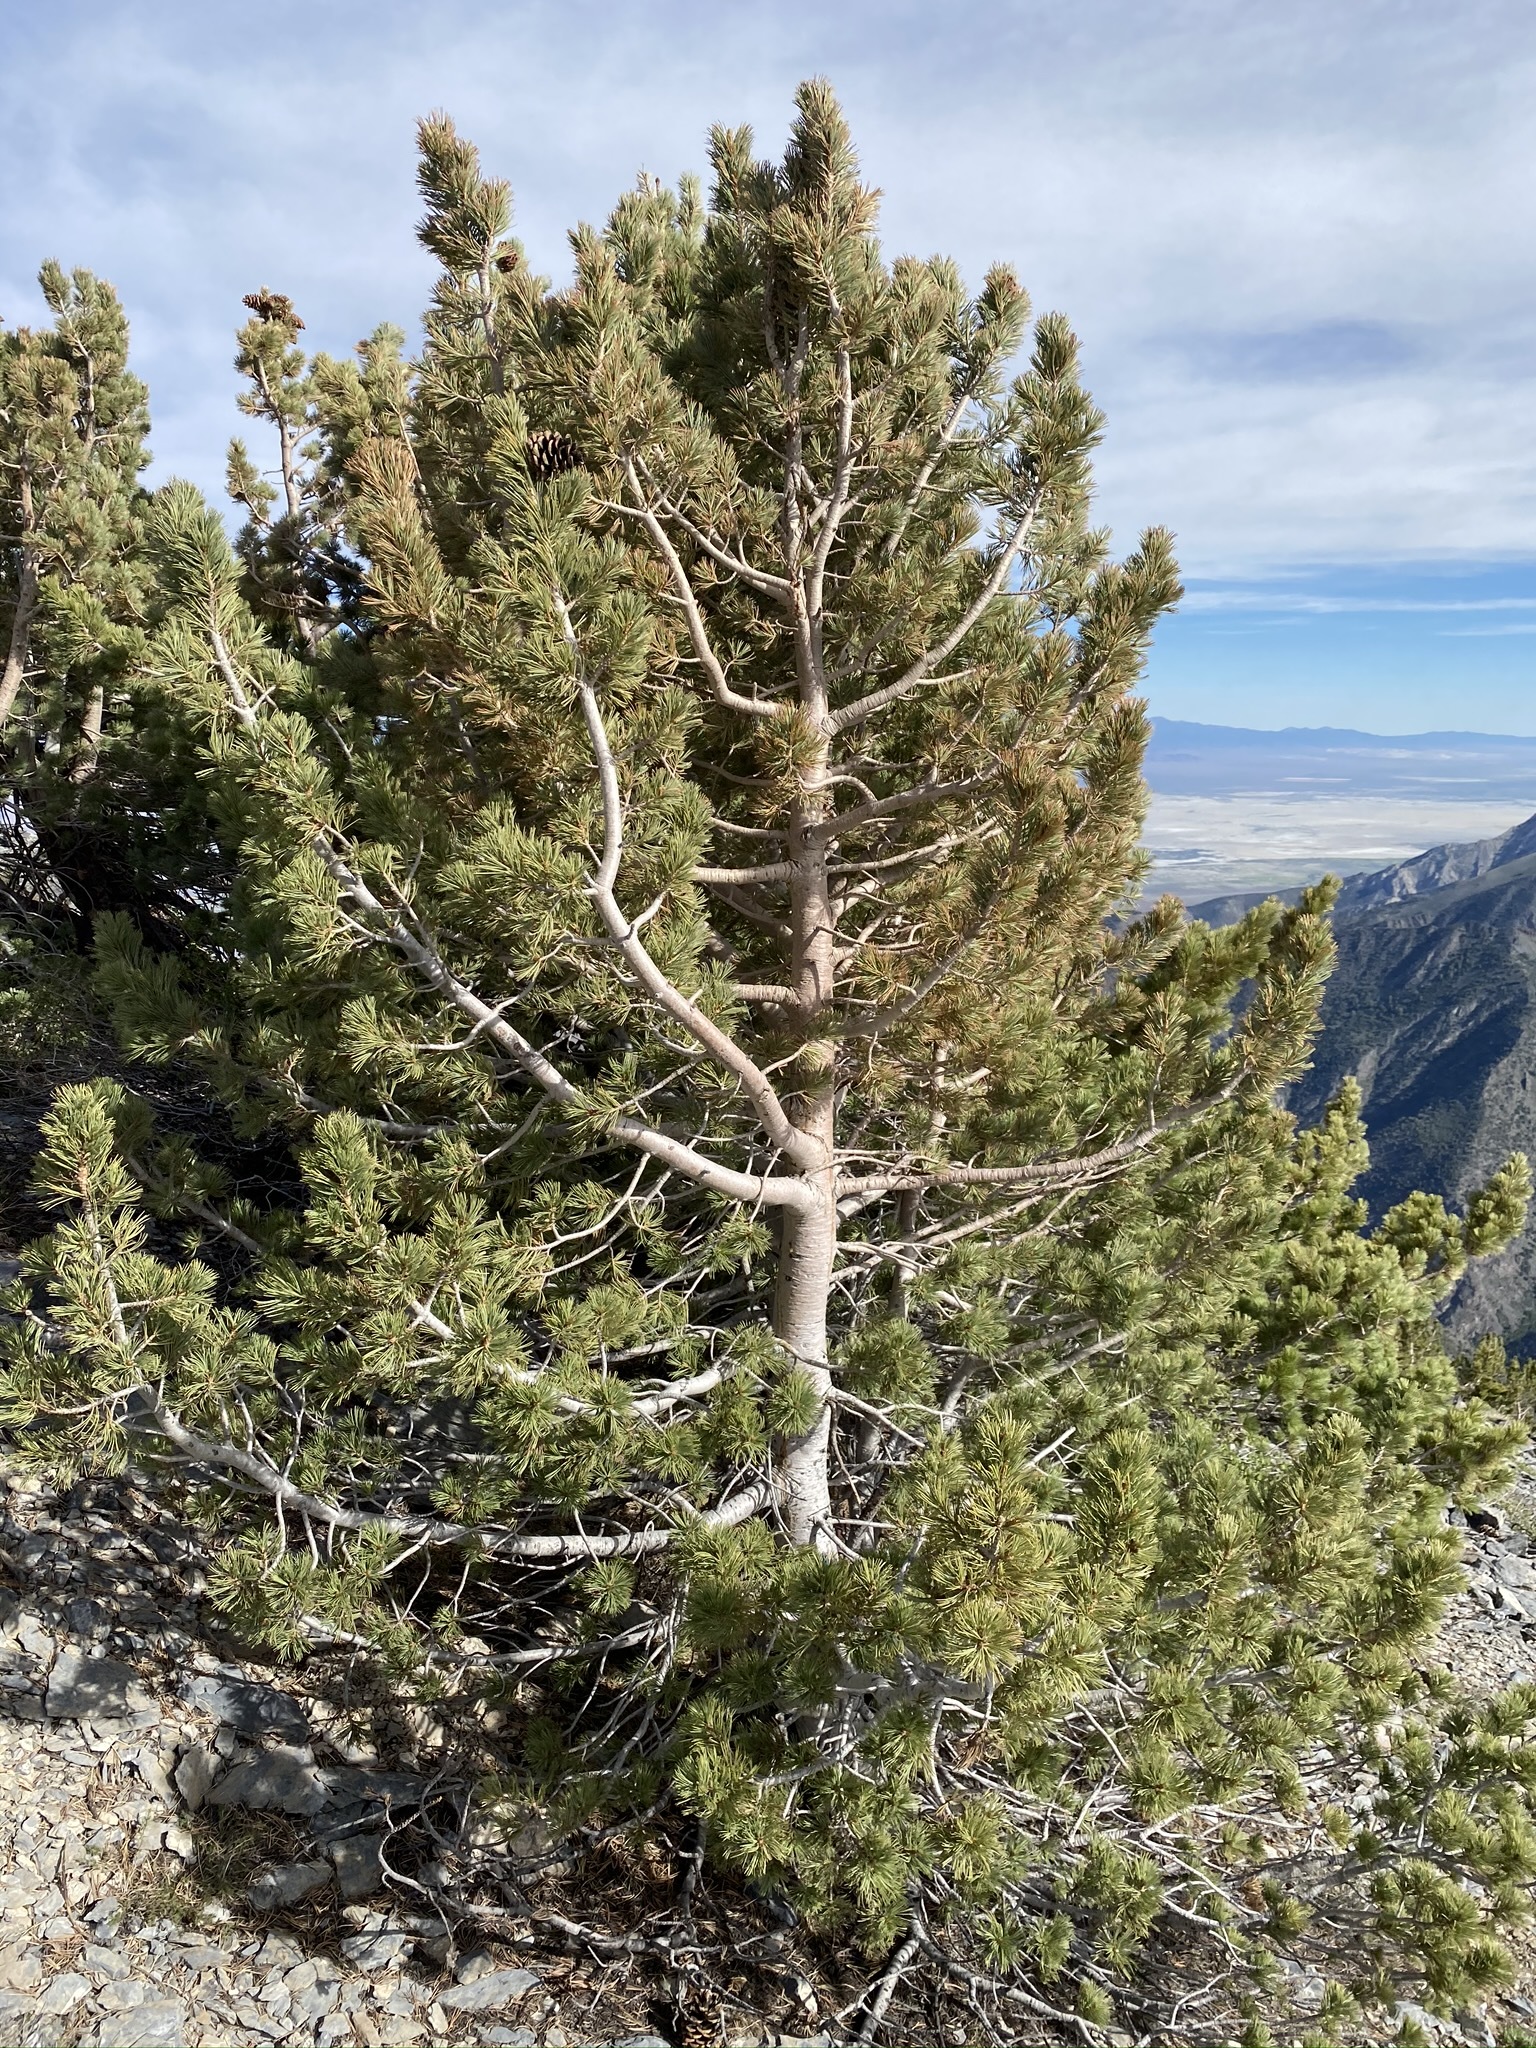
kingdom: Plantae
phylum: Tracheophyta
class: Pinopsida
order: Pinales
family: Pinaceae
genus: Pinus
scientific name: Pinus flexilis
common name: Limber pine
